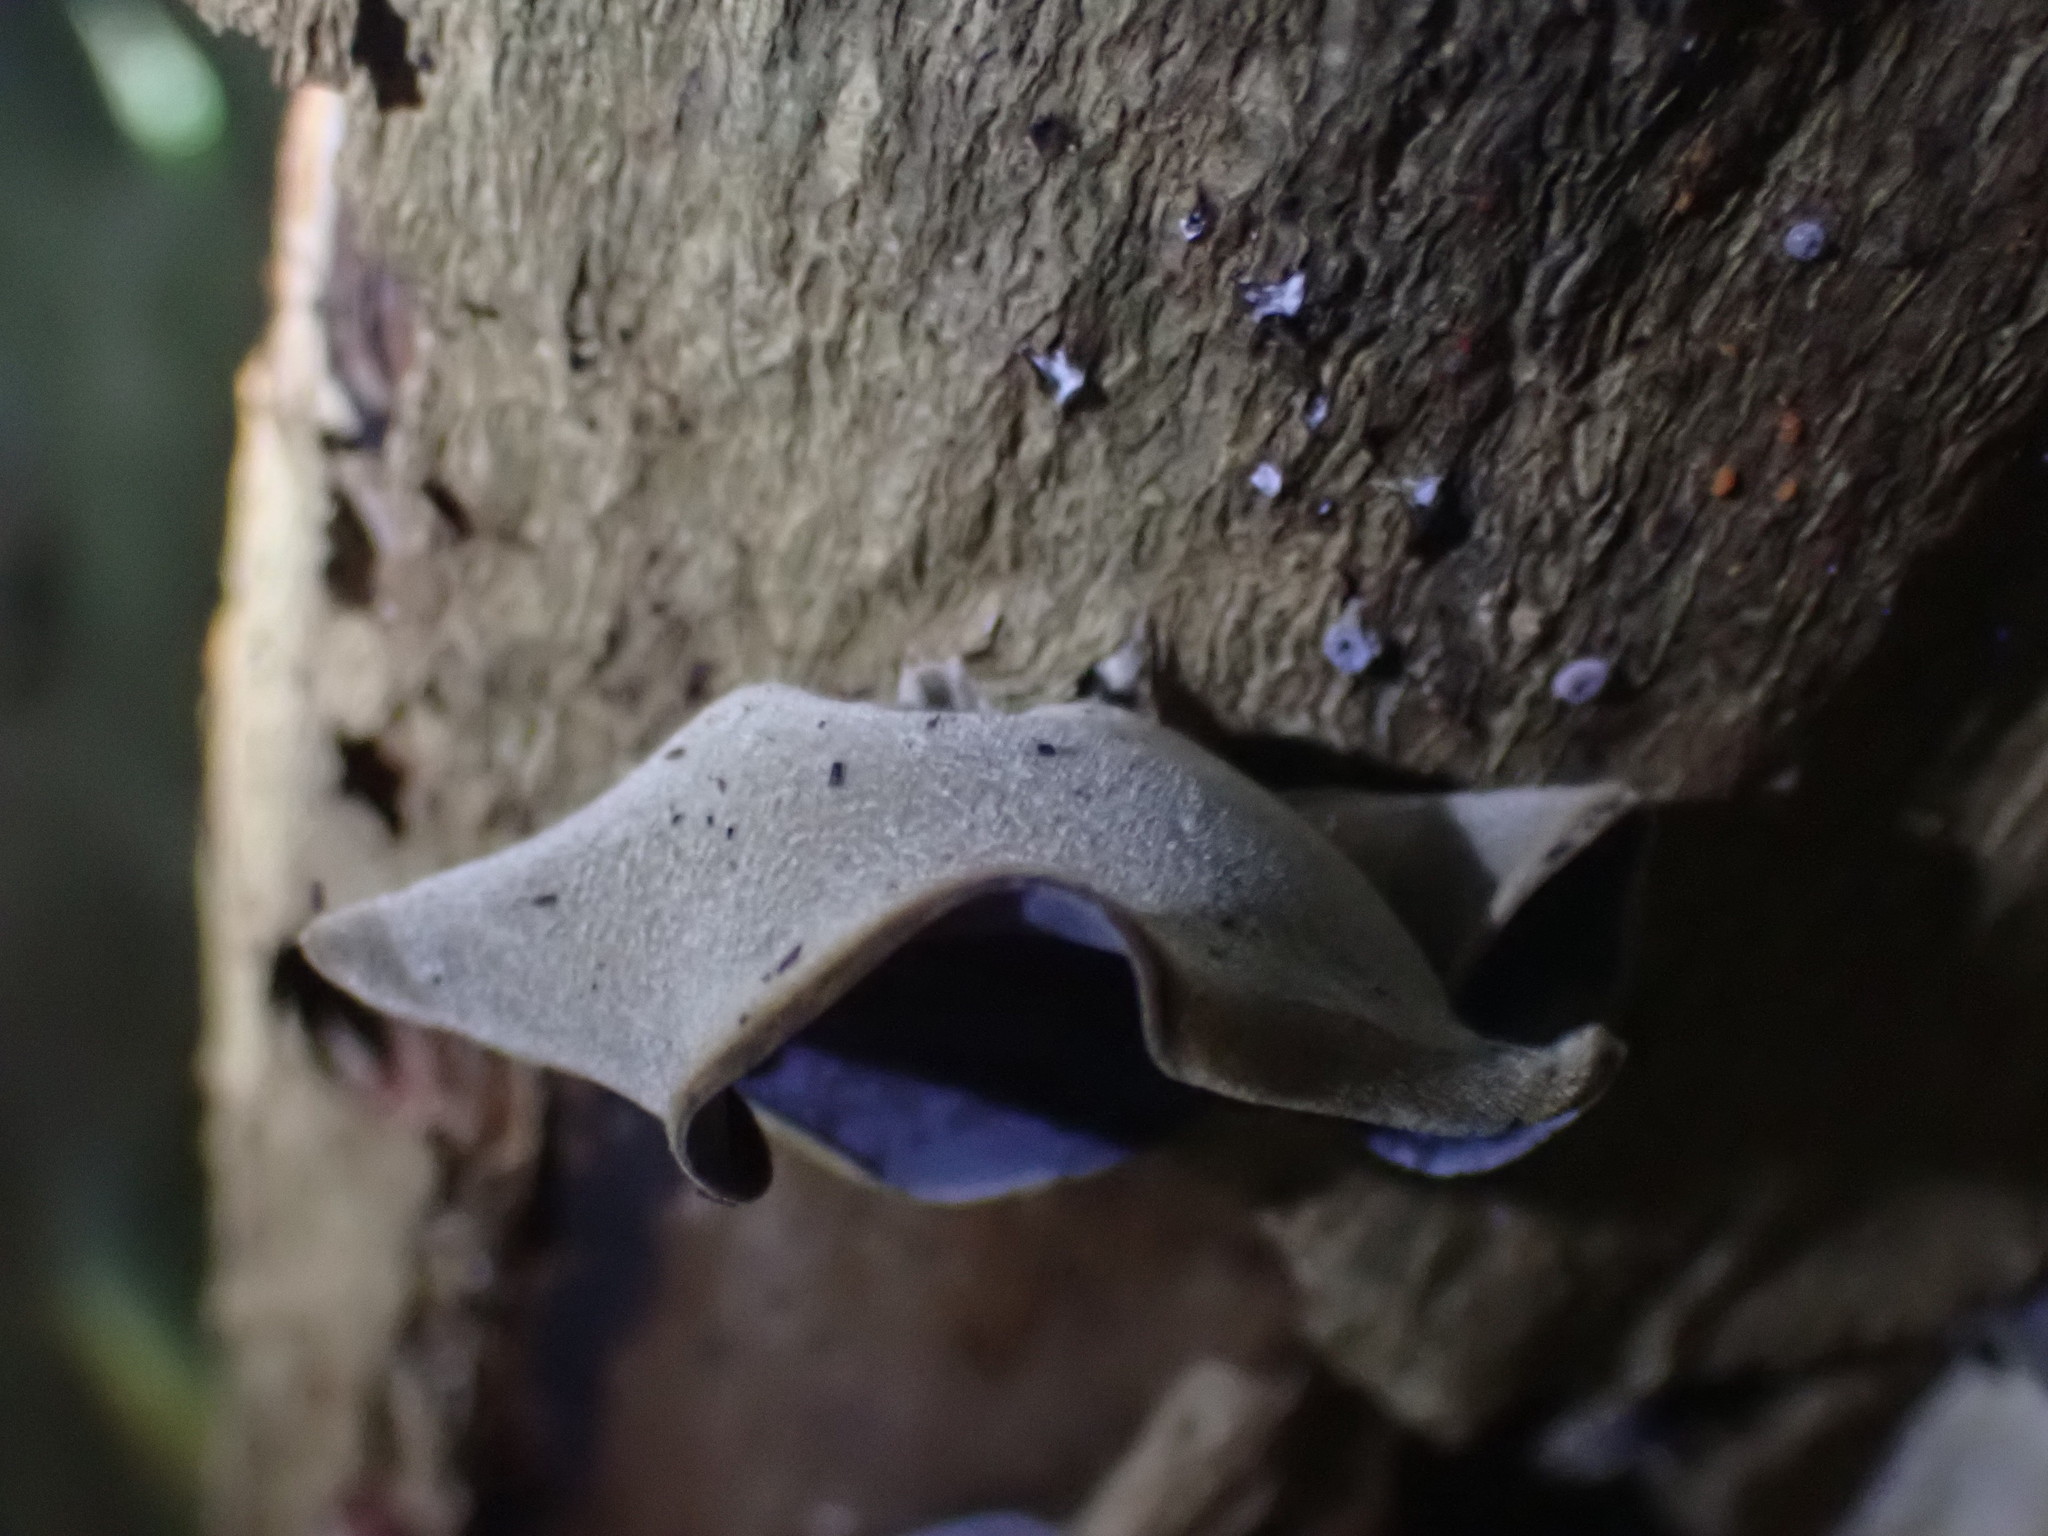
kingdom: Fungi
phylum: Basidiomycota
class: Agaricomycetes
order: Auriculariales
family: Auriculariaceae
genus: Auricularia
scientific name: Auricularia cornea
